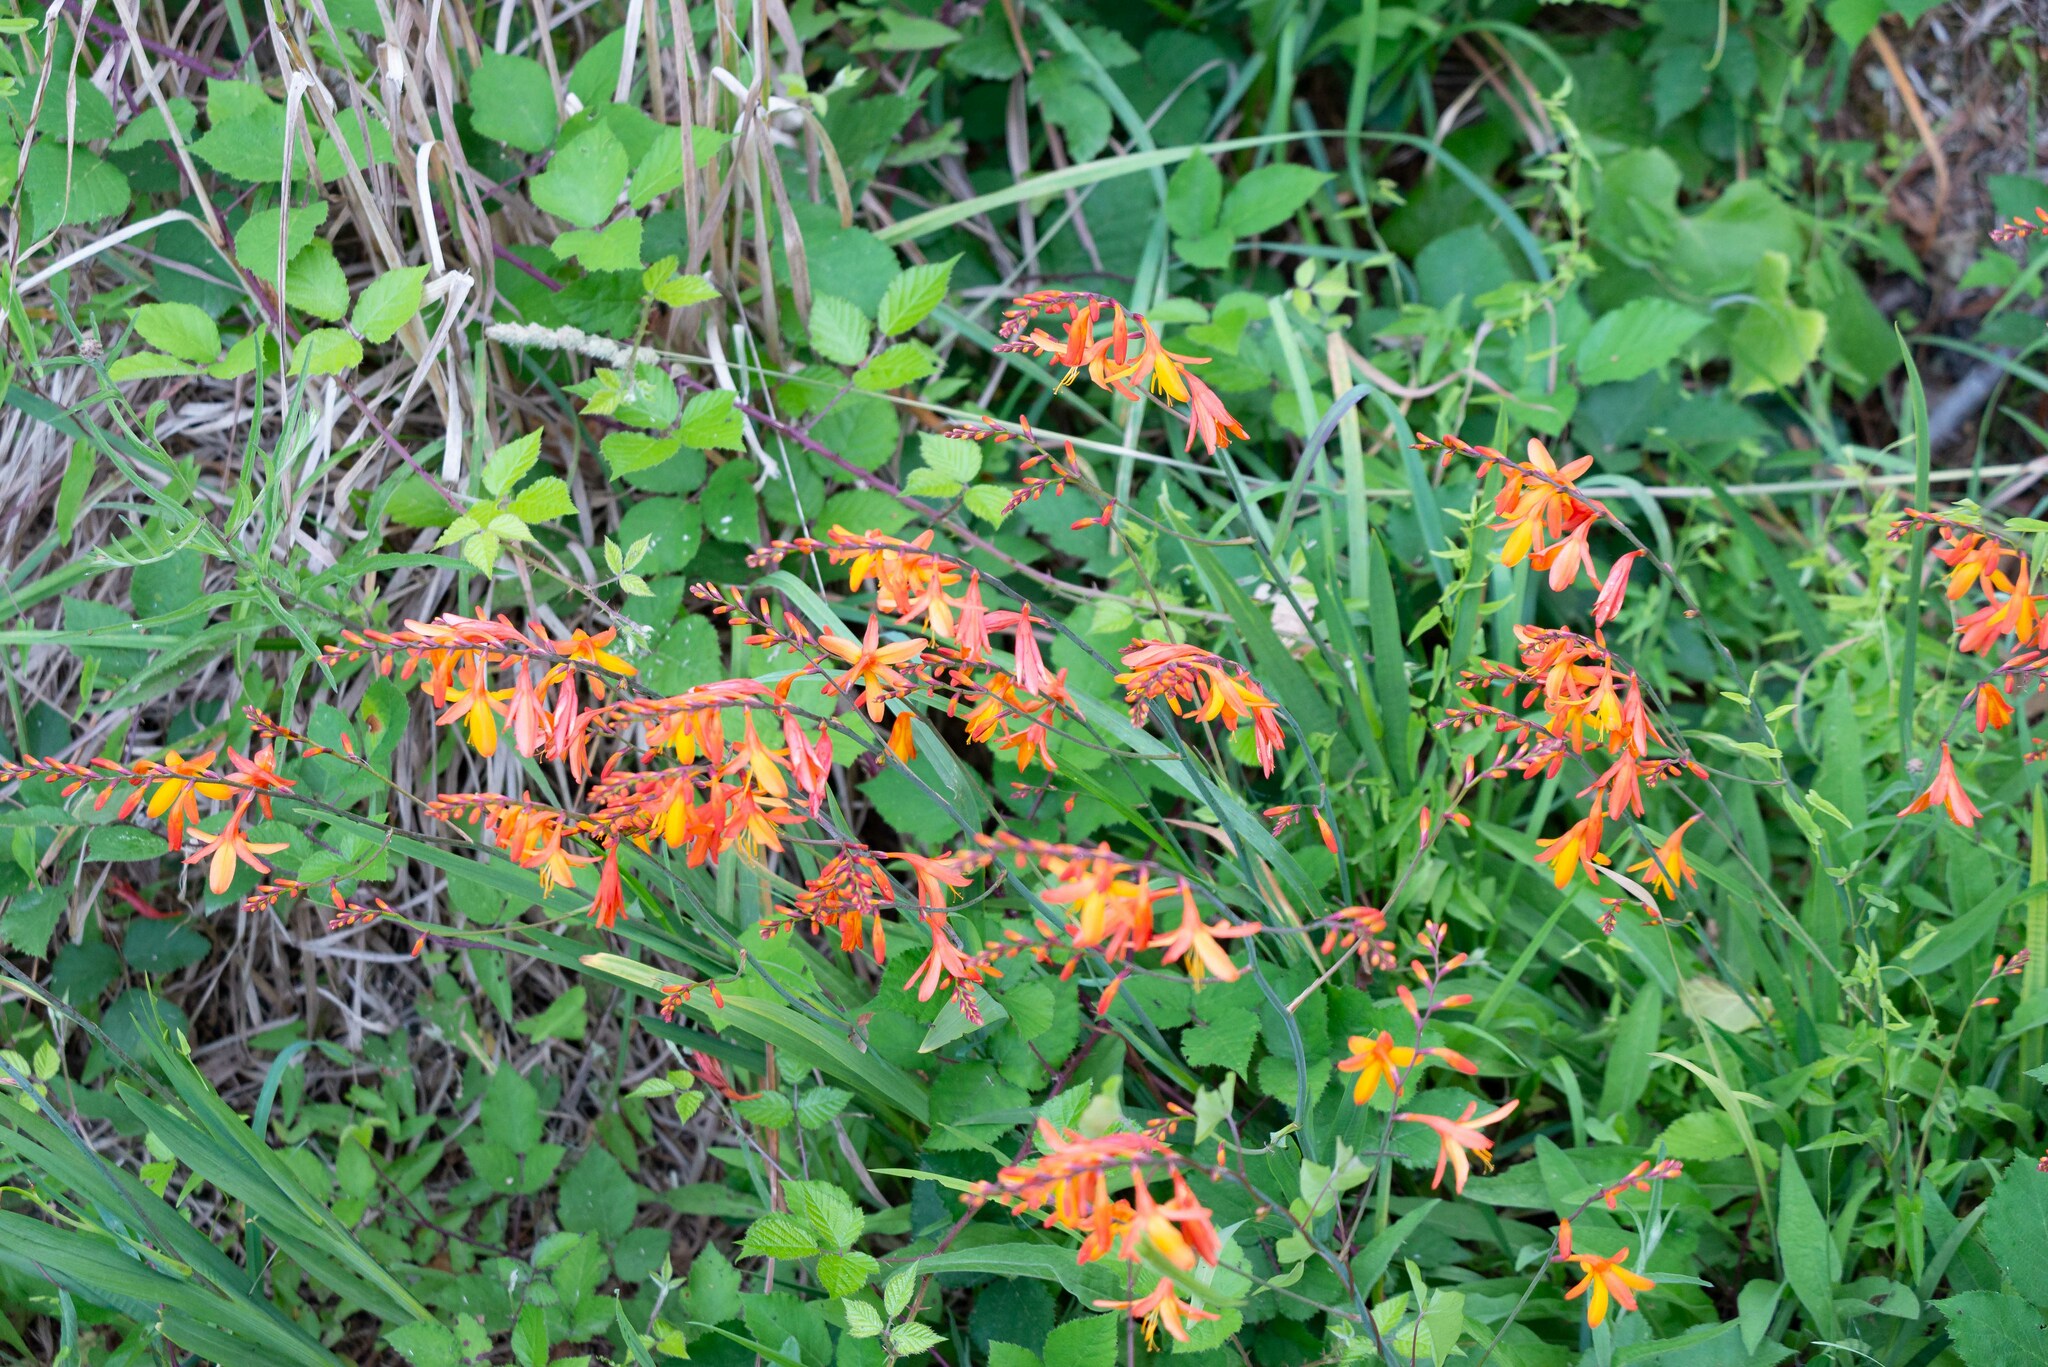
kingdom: Plantae
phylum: Tracheophyta
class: Liliopsida
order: Asparagales
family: Iridaceae
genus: Crocosmia
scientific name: Crocosmia crocosmiiflora
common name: Montbretia
